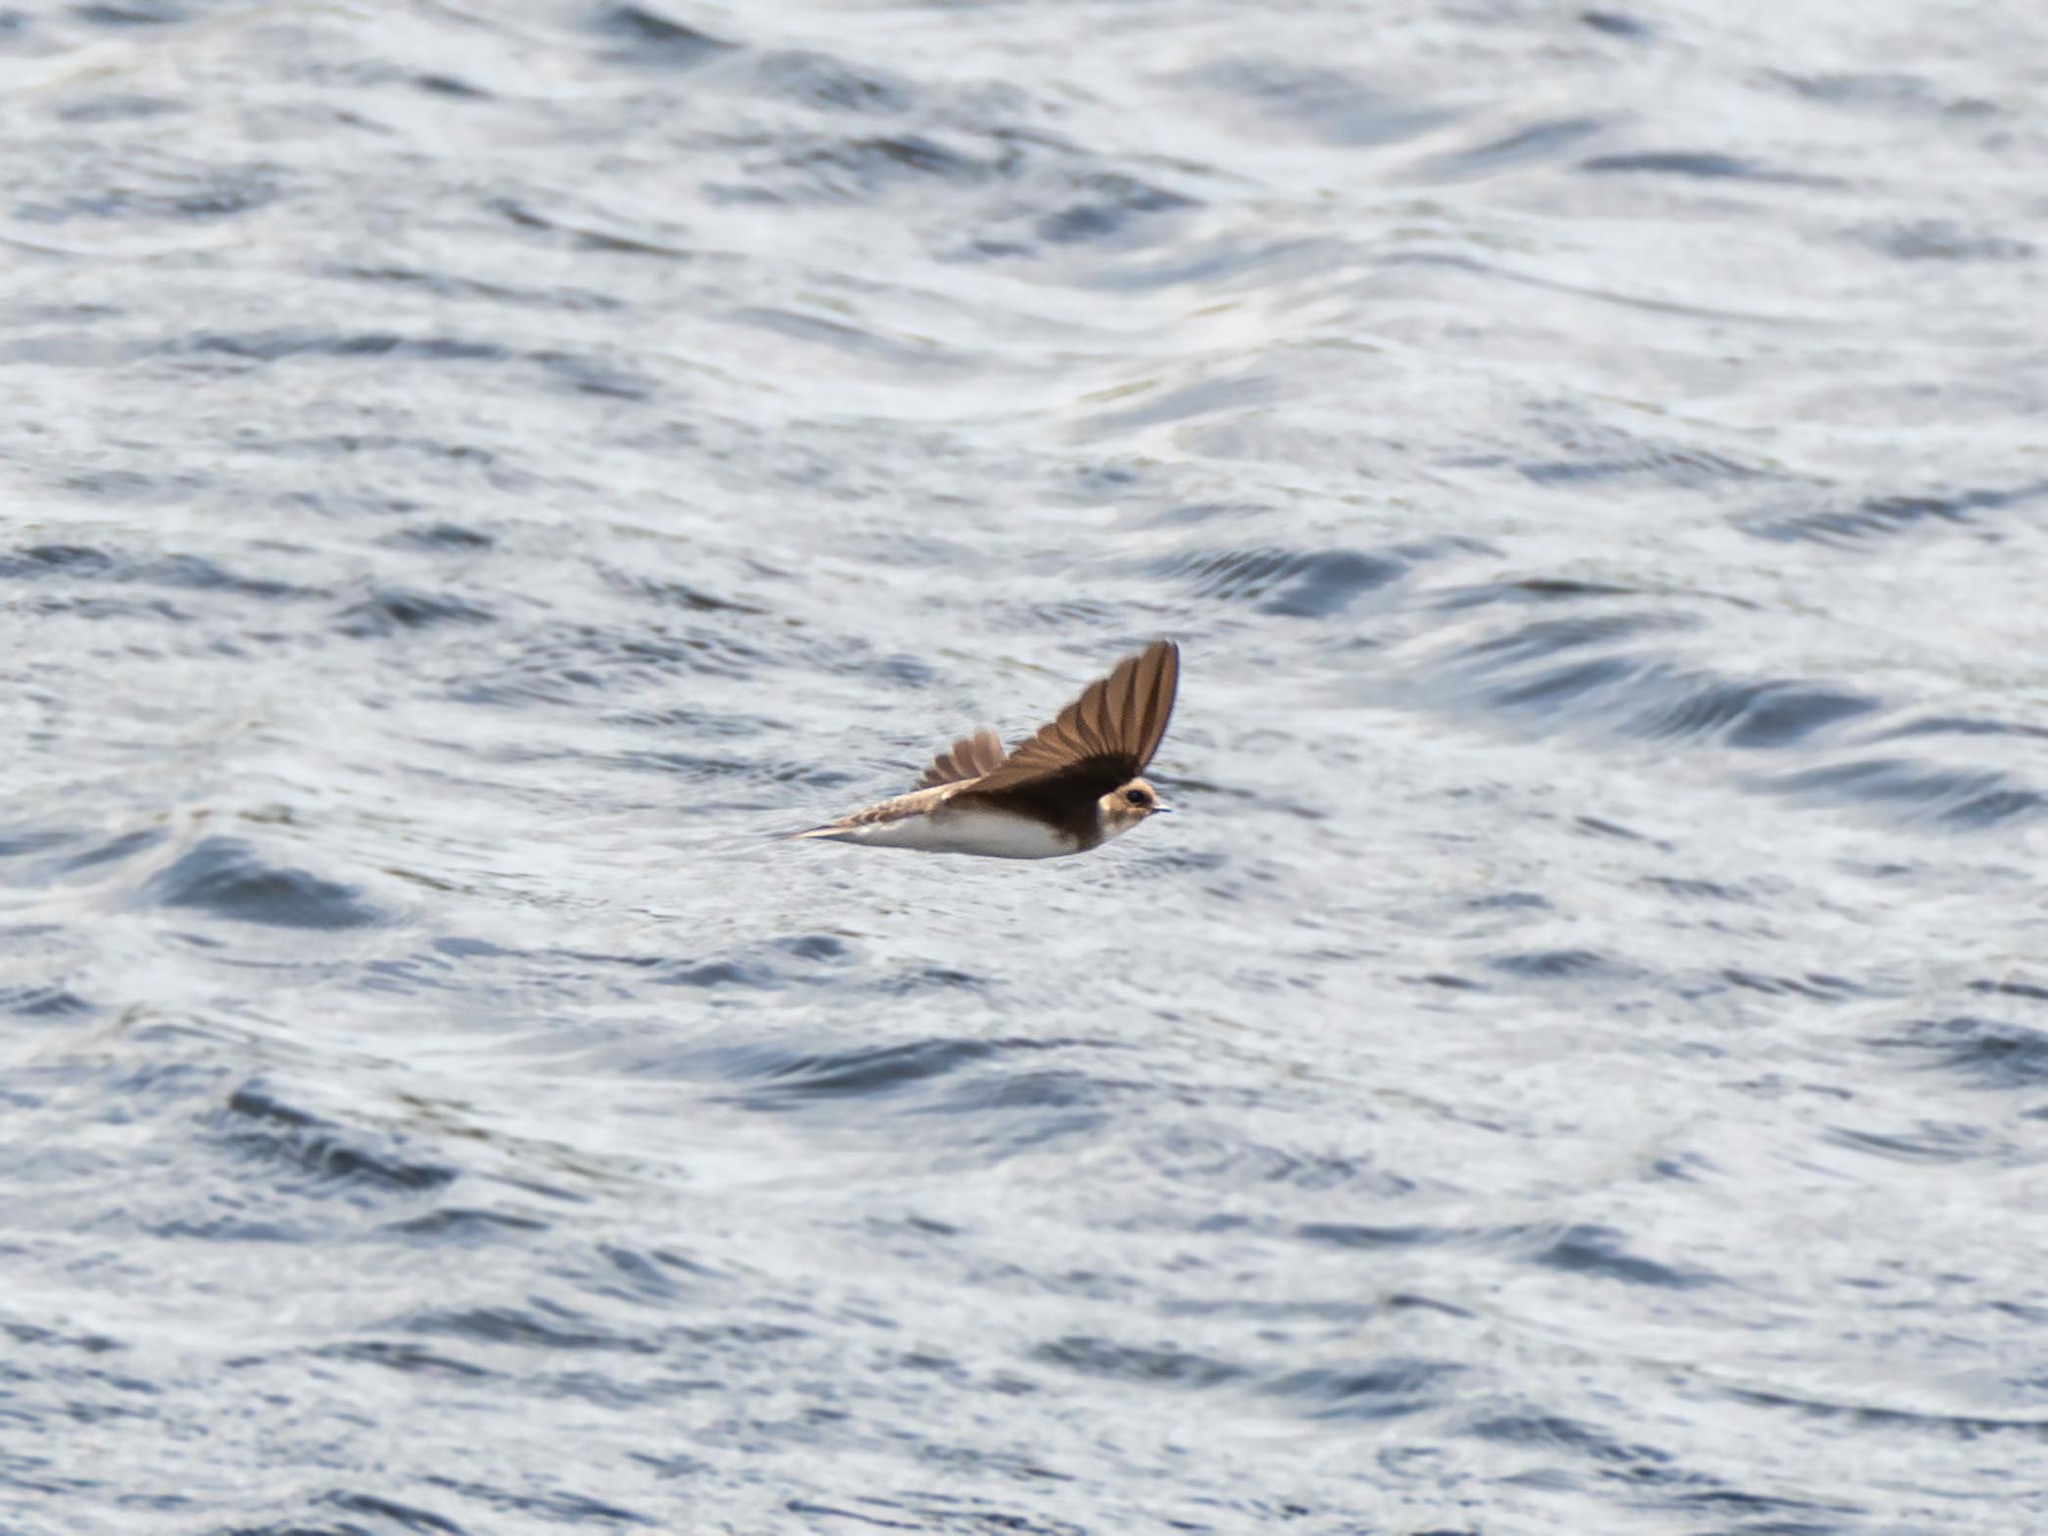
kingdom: Animalia
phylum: Chordata
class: Aves
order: Passeriformes
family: Hirundinidae
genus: Riparia
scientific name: Riparia riparia
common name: Sand martin
